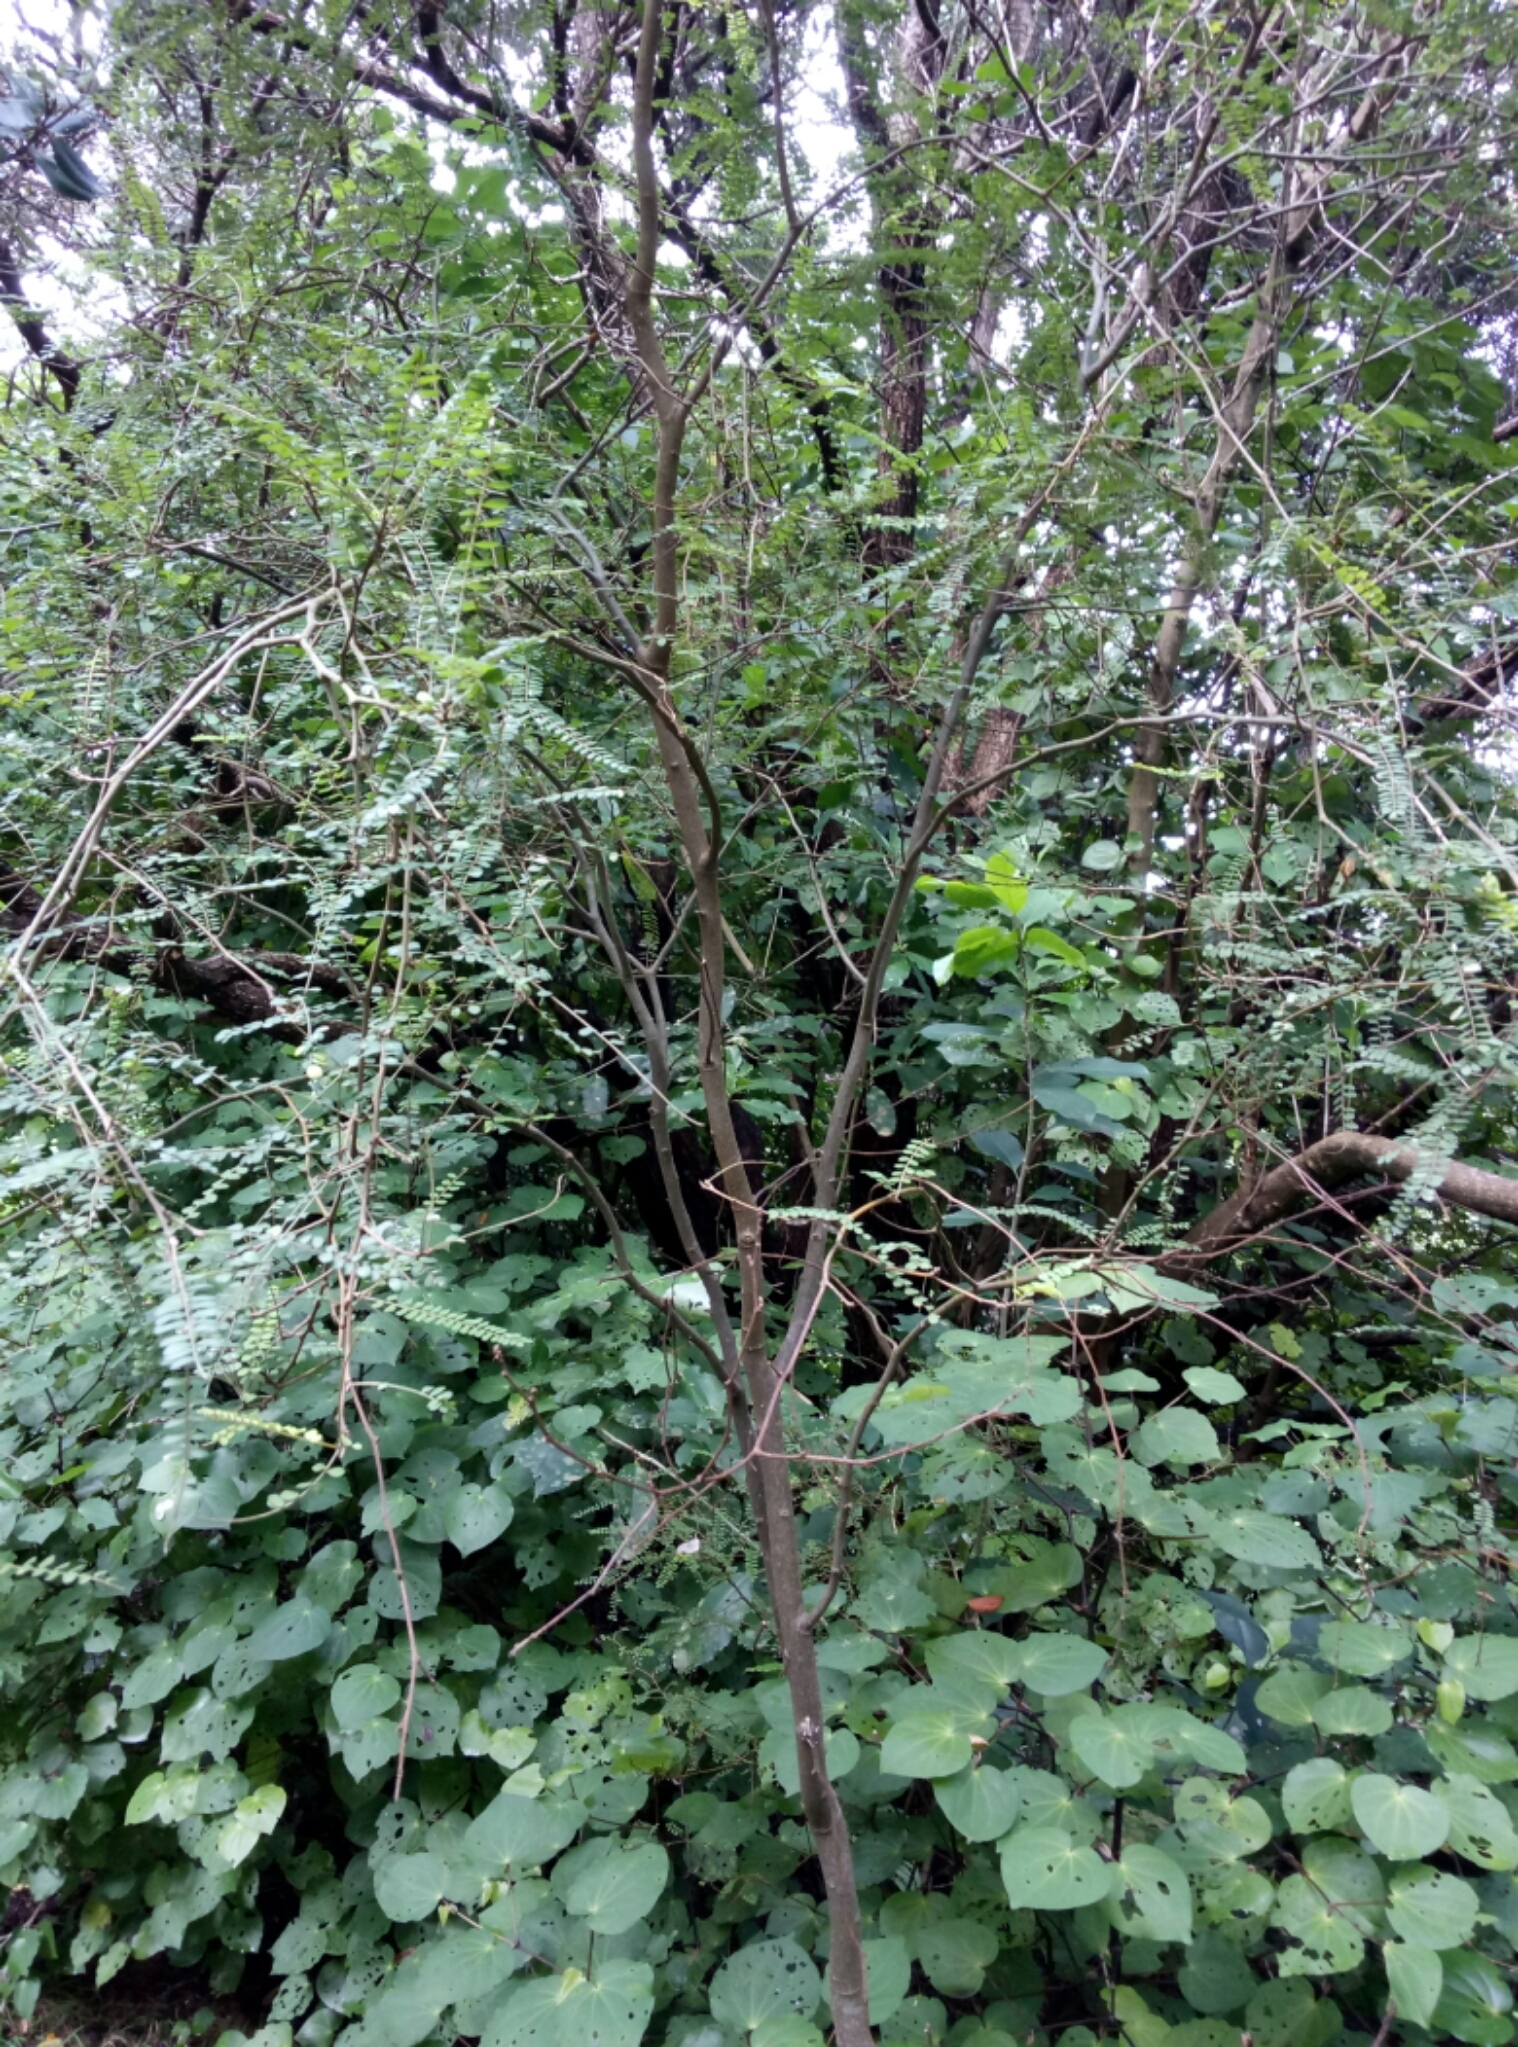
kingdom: Plantae
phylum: Tracheophyta
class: Magnoliopsida
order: Fabales
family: Fabaceae
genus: Sophora
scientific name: Sophora microphylla
